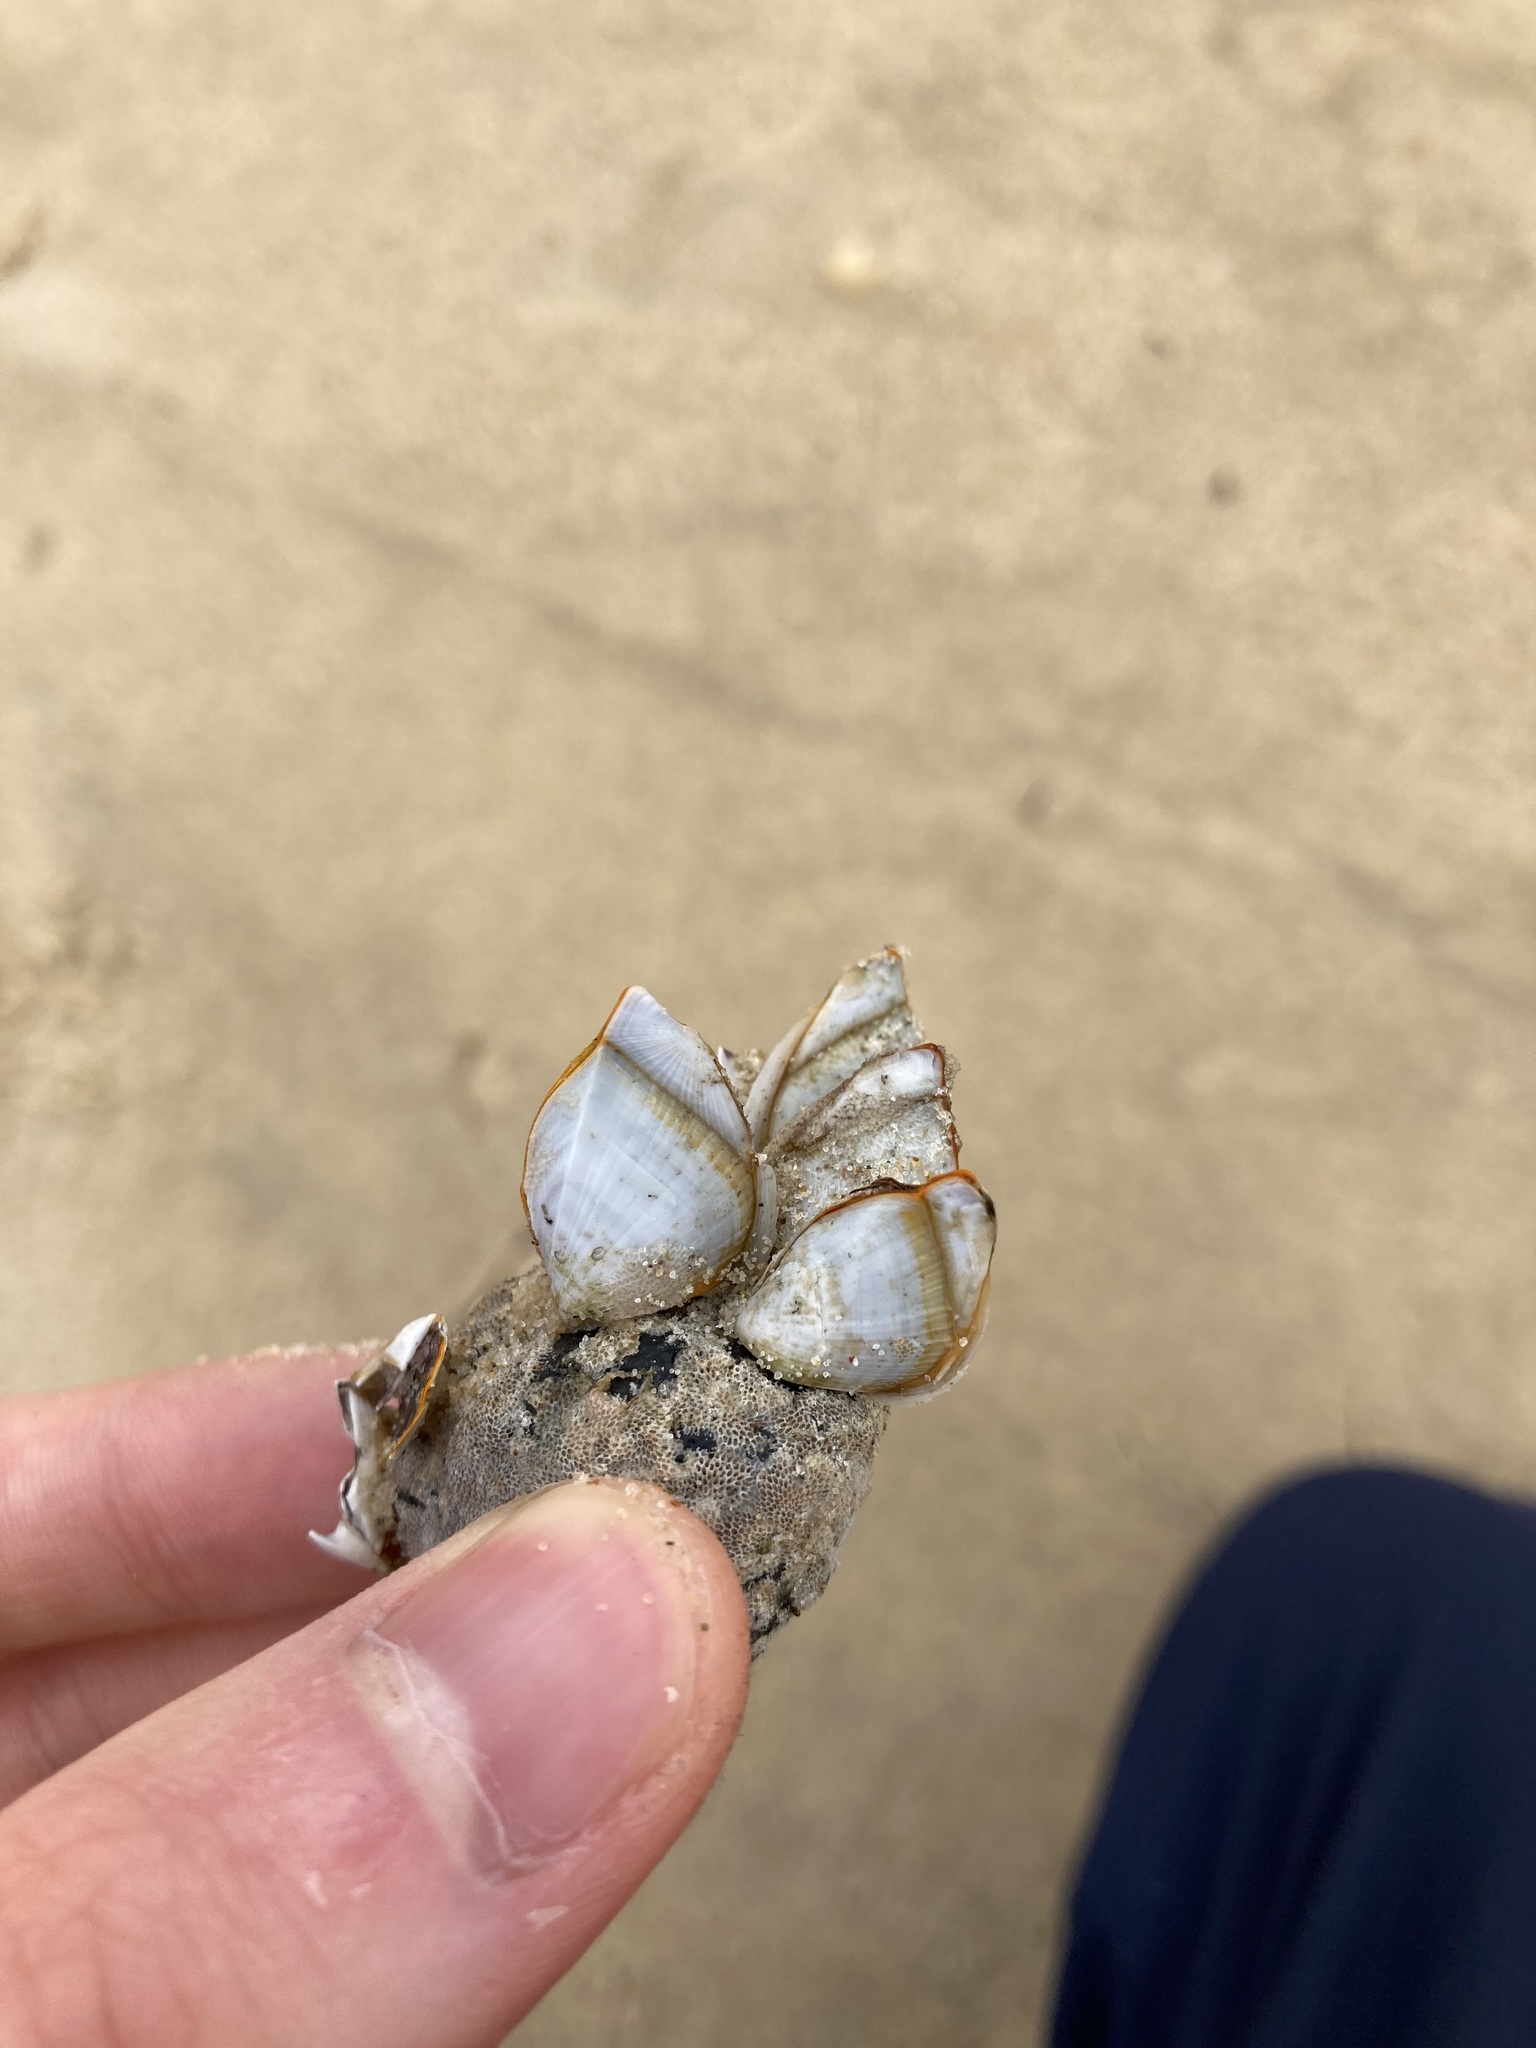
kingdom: Animalia
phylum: Arthropoda
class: Maxillopoda
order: Pedunculata
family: Lepadidae
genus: Lepas
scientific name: Lepas anserifera
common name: Goose barnacle
